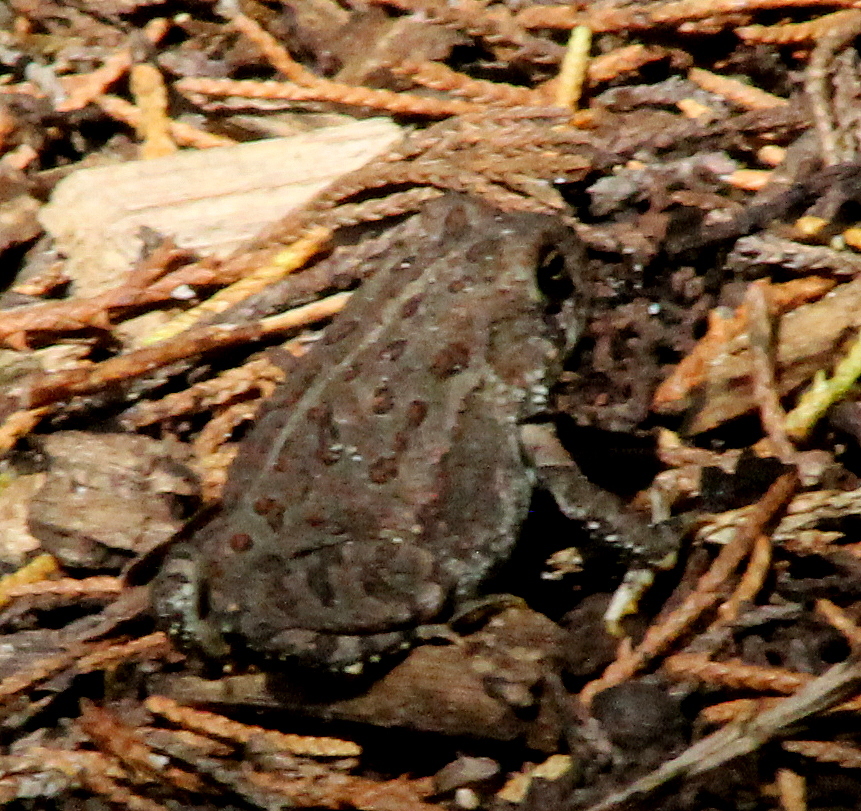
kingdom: Animalia
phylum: Chordata
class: Amphibia
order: Anura
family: Bufonidae
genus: Anaxyrus
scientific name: Anaxyrus woodhousii
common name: Woodhouse's toad
